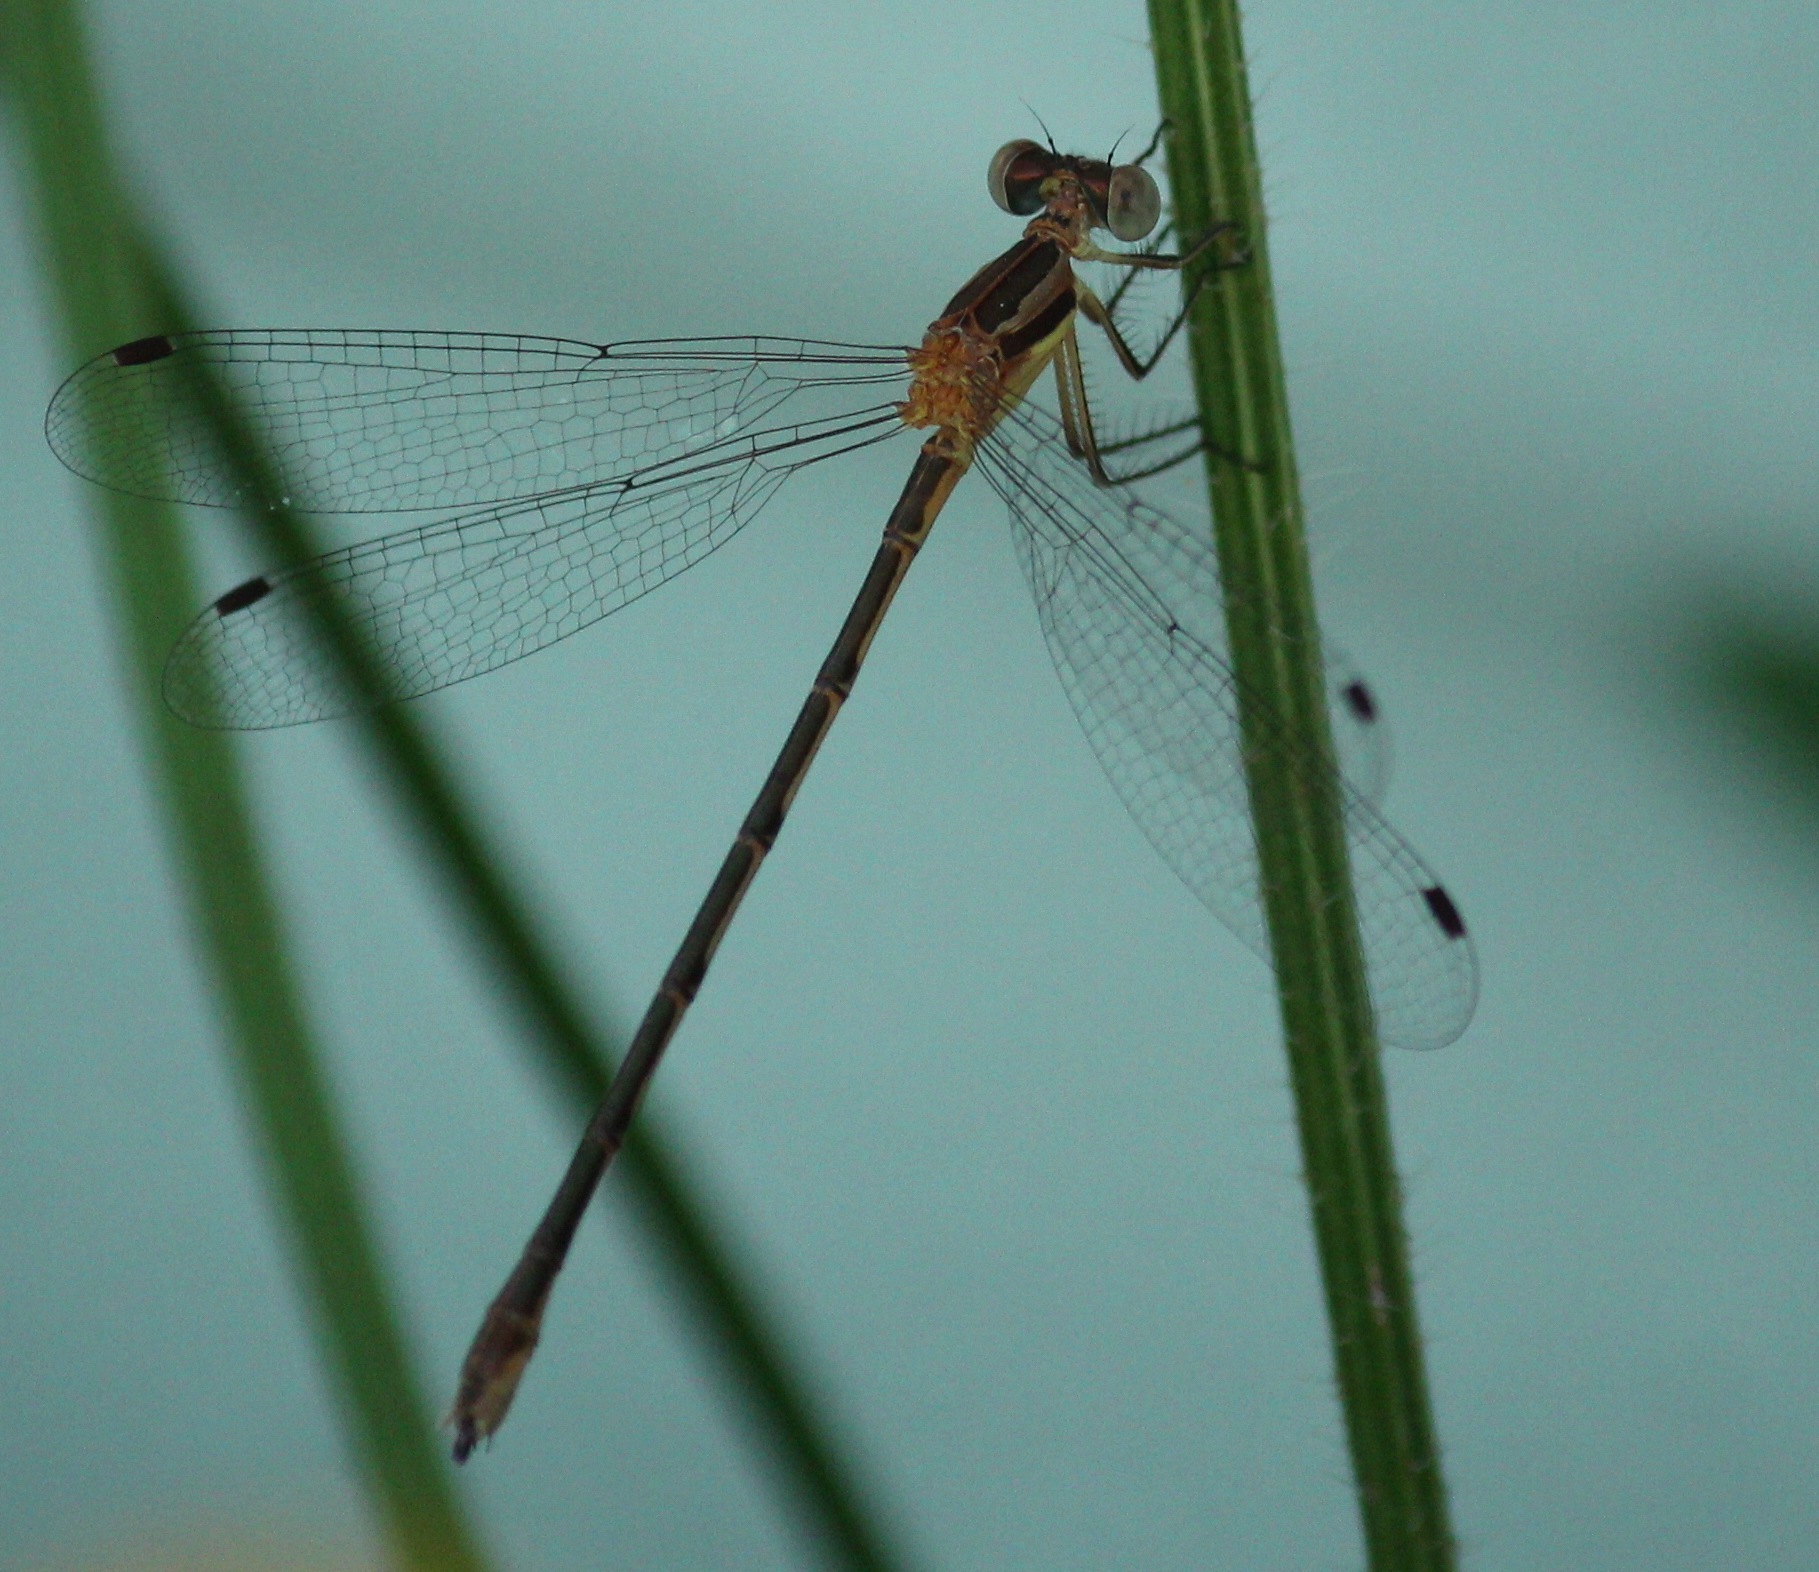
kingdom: Animalia
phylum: Arthropoda
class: Insecta
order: Odonata
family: Lestidae
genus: Lestes
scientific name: Lestes australis
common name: Southern spreadwing
